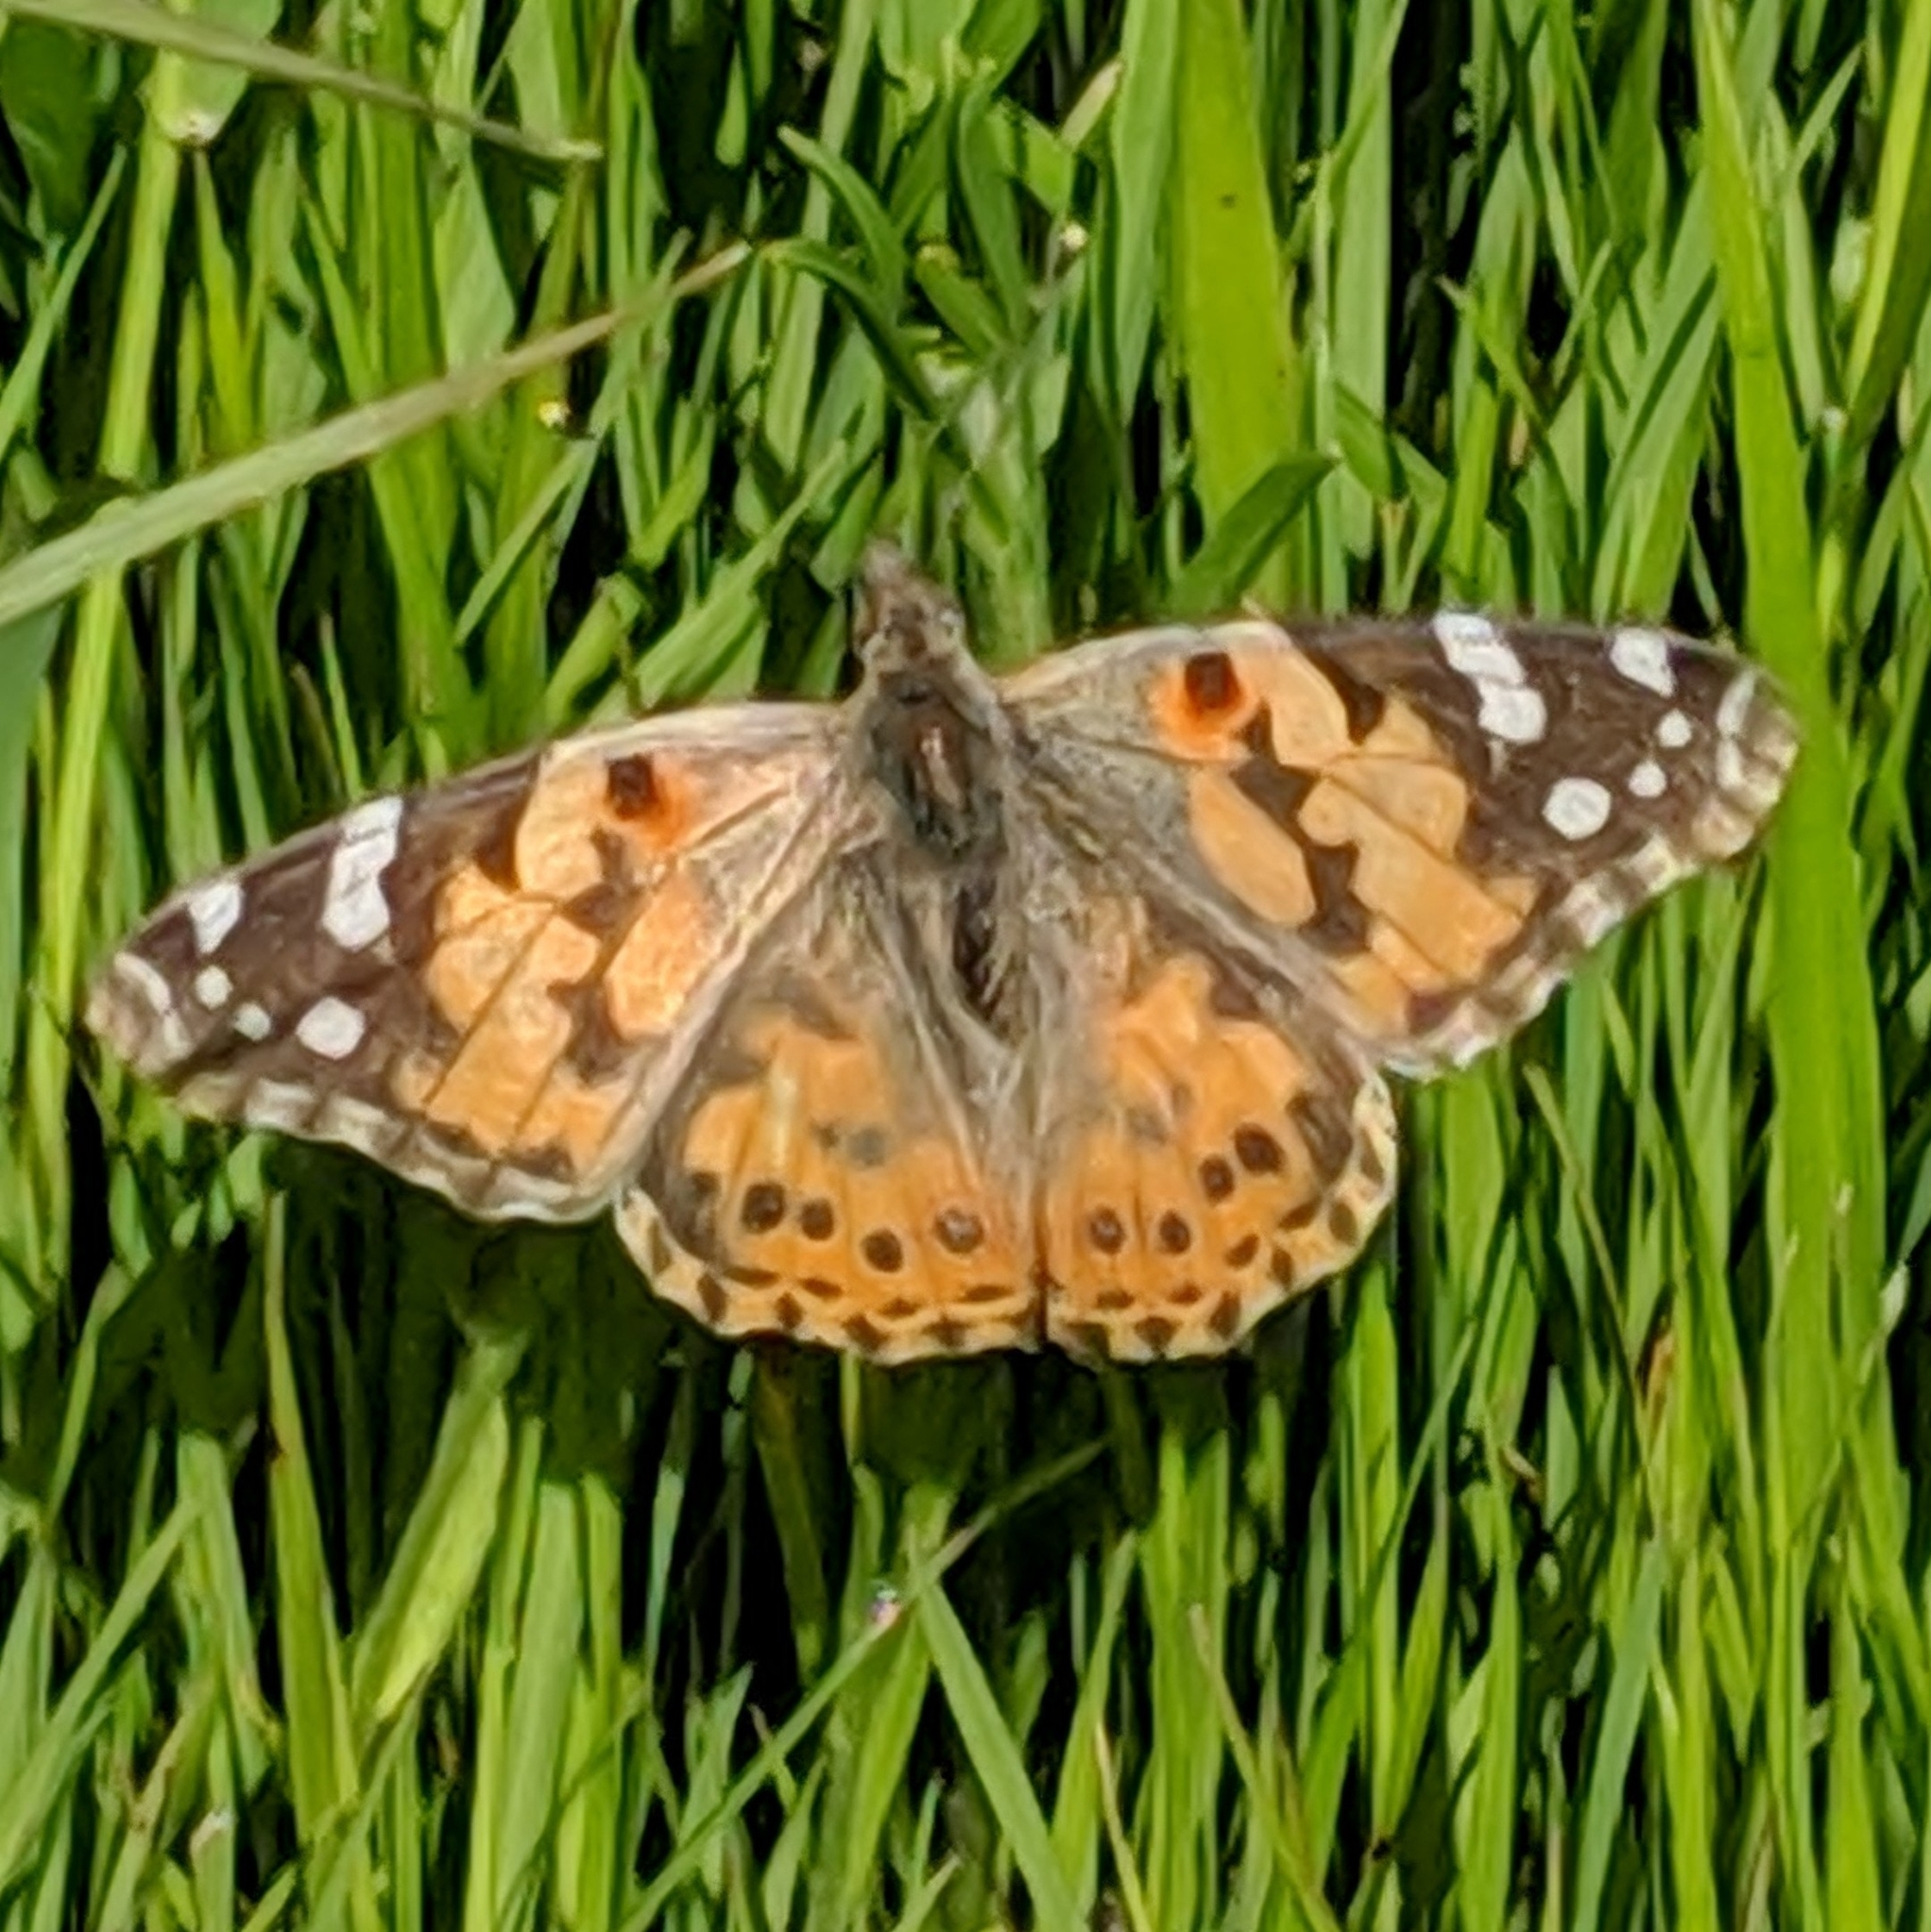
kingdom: Animalia
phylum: Arthropoda
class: Insecta
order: Lepidoptera
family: Nymphalidae
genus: Vanessa
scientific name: Vanessa cardui
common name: Painted lady
